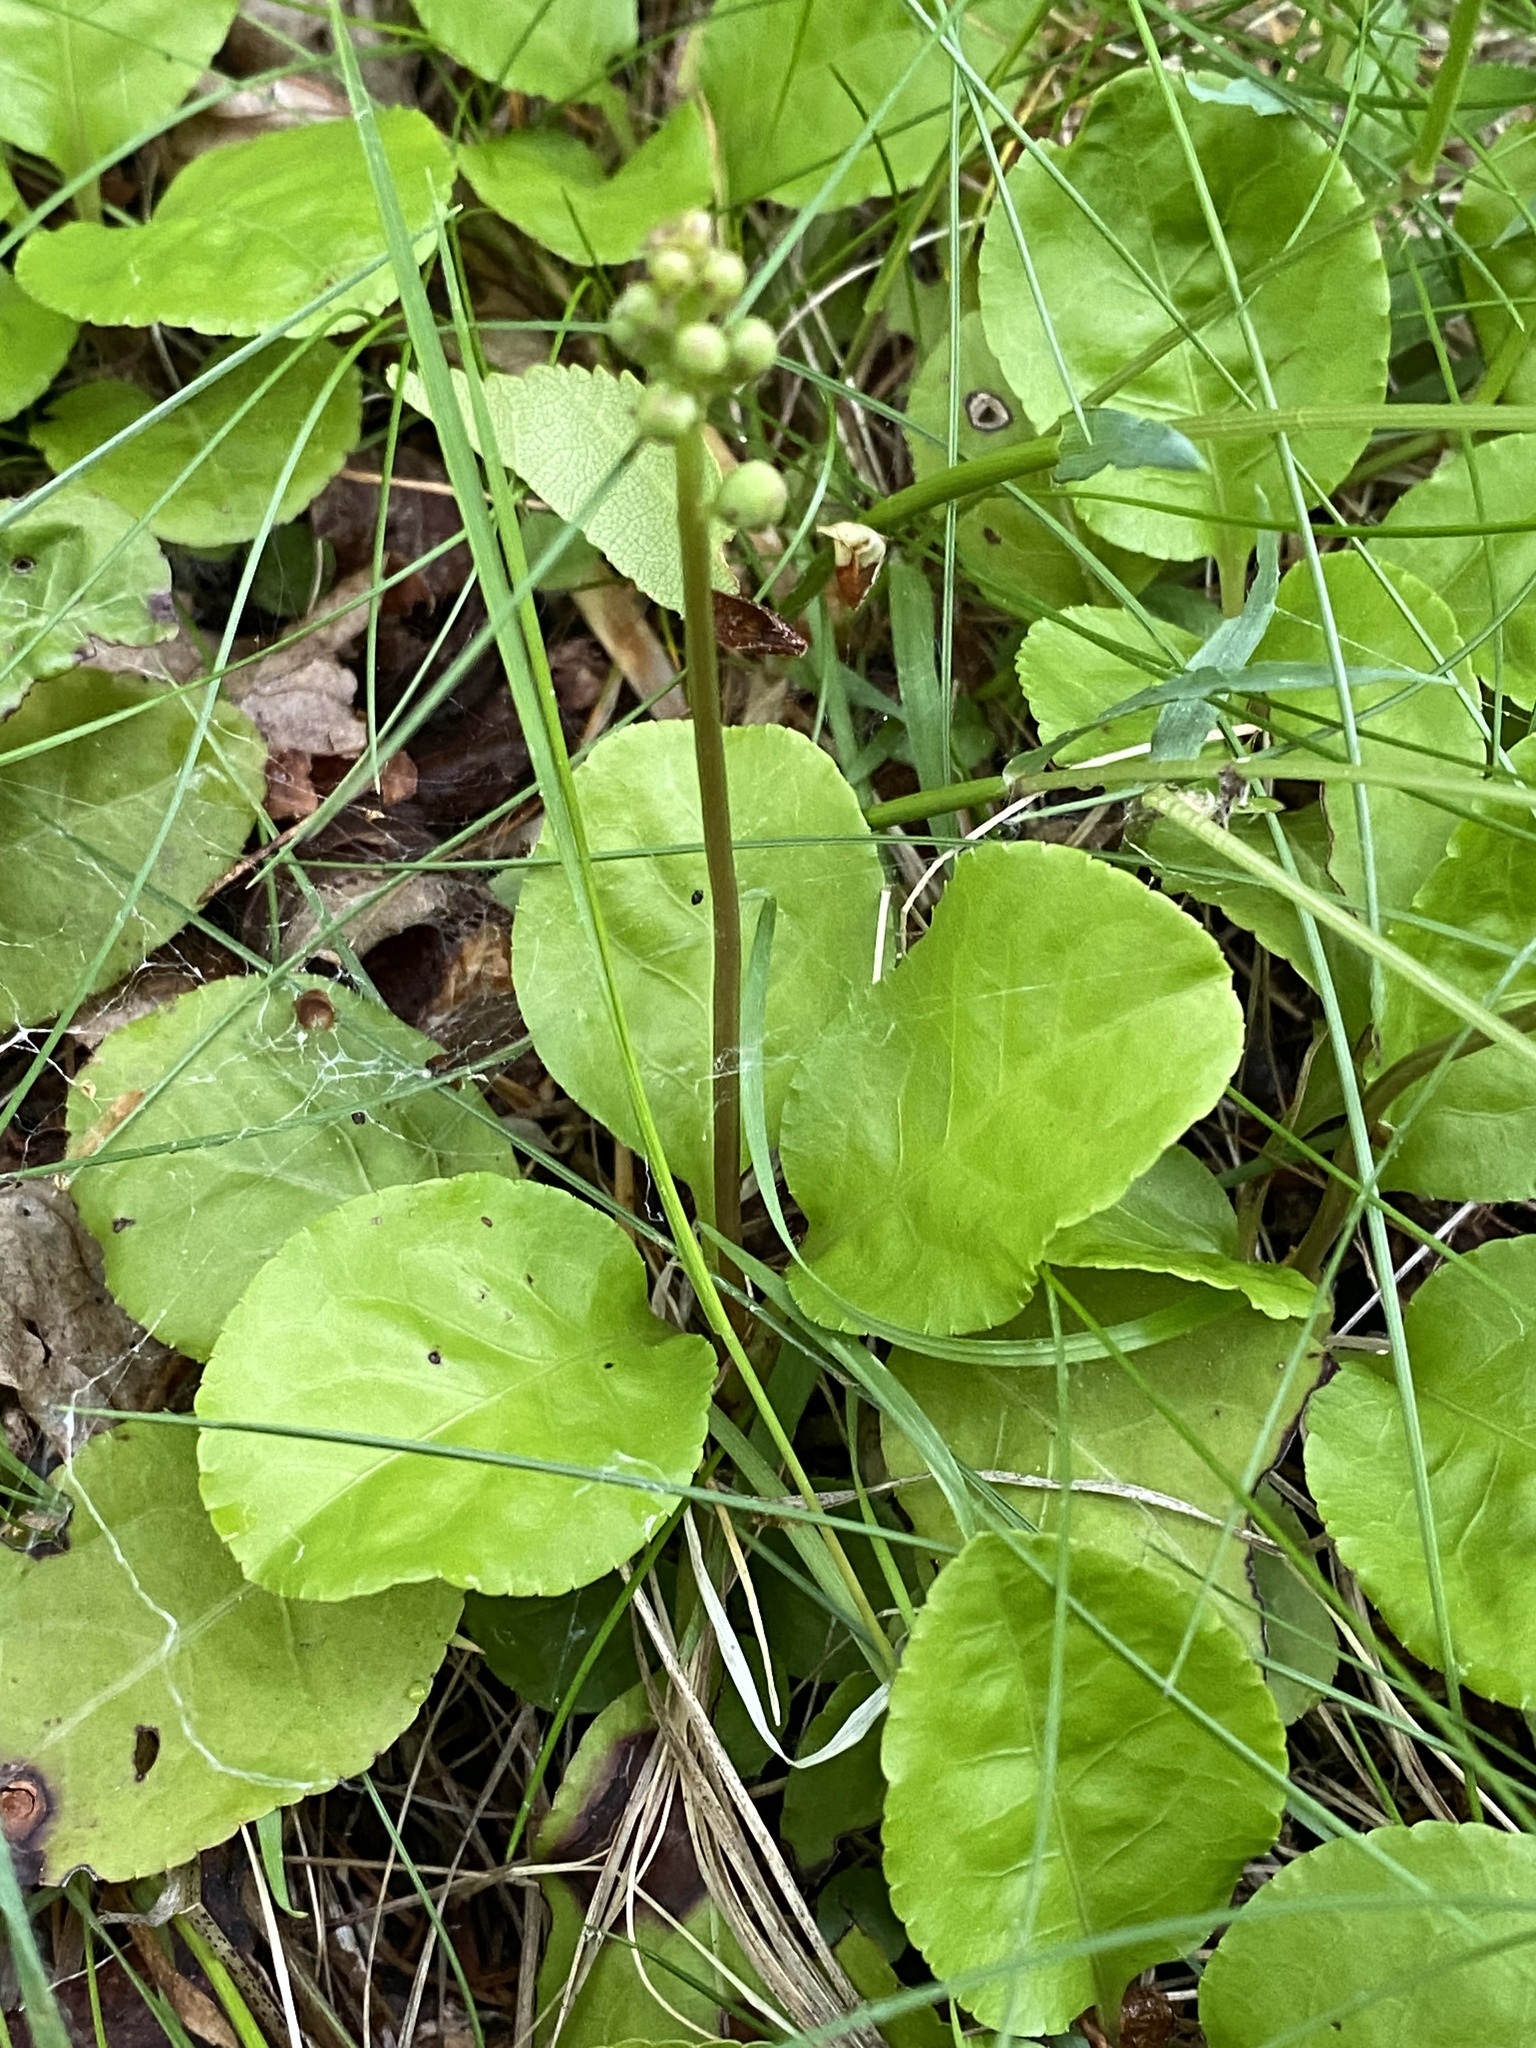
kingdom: Plantae
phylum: Tracheophyta
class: Magnoliopsida
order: Ericales
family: Ericaceae
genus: Pyrola
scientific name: Pyrola elliptica
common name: Shinleaf
